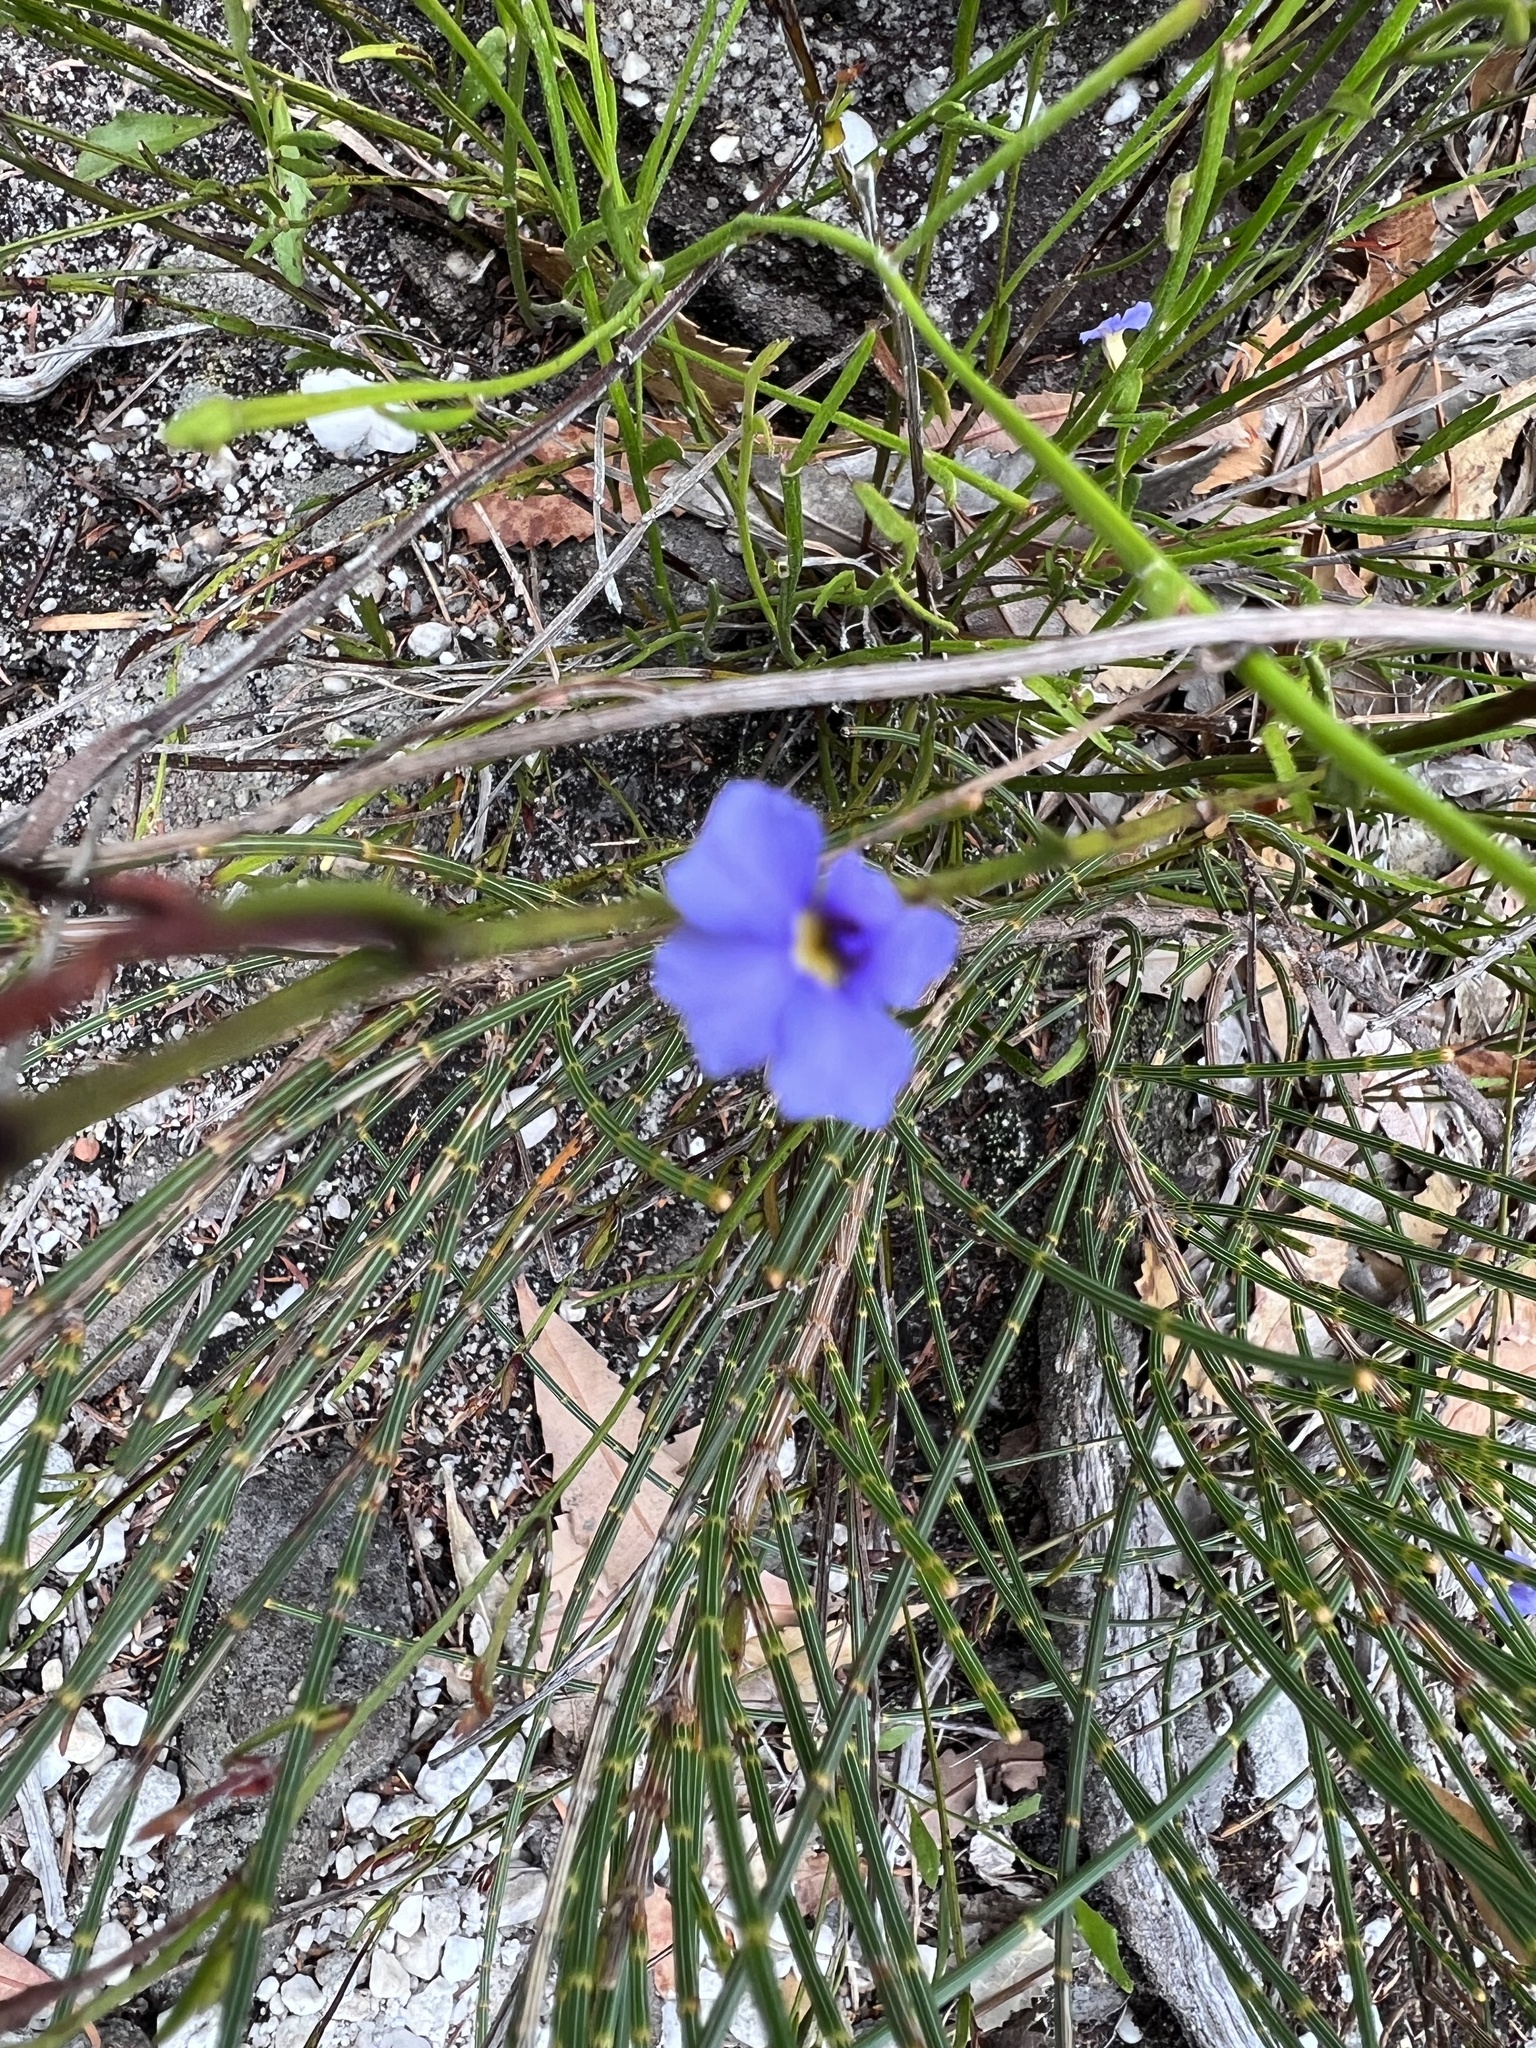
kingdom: Plantae
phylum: Tracheophyta
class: Magnoliopsida
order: Asterales
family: Goodeniaceae
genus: Dampiera
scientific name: Dampiera stricta
